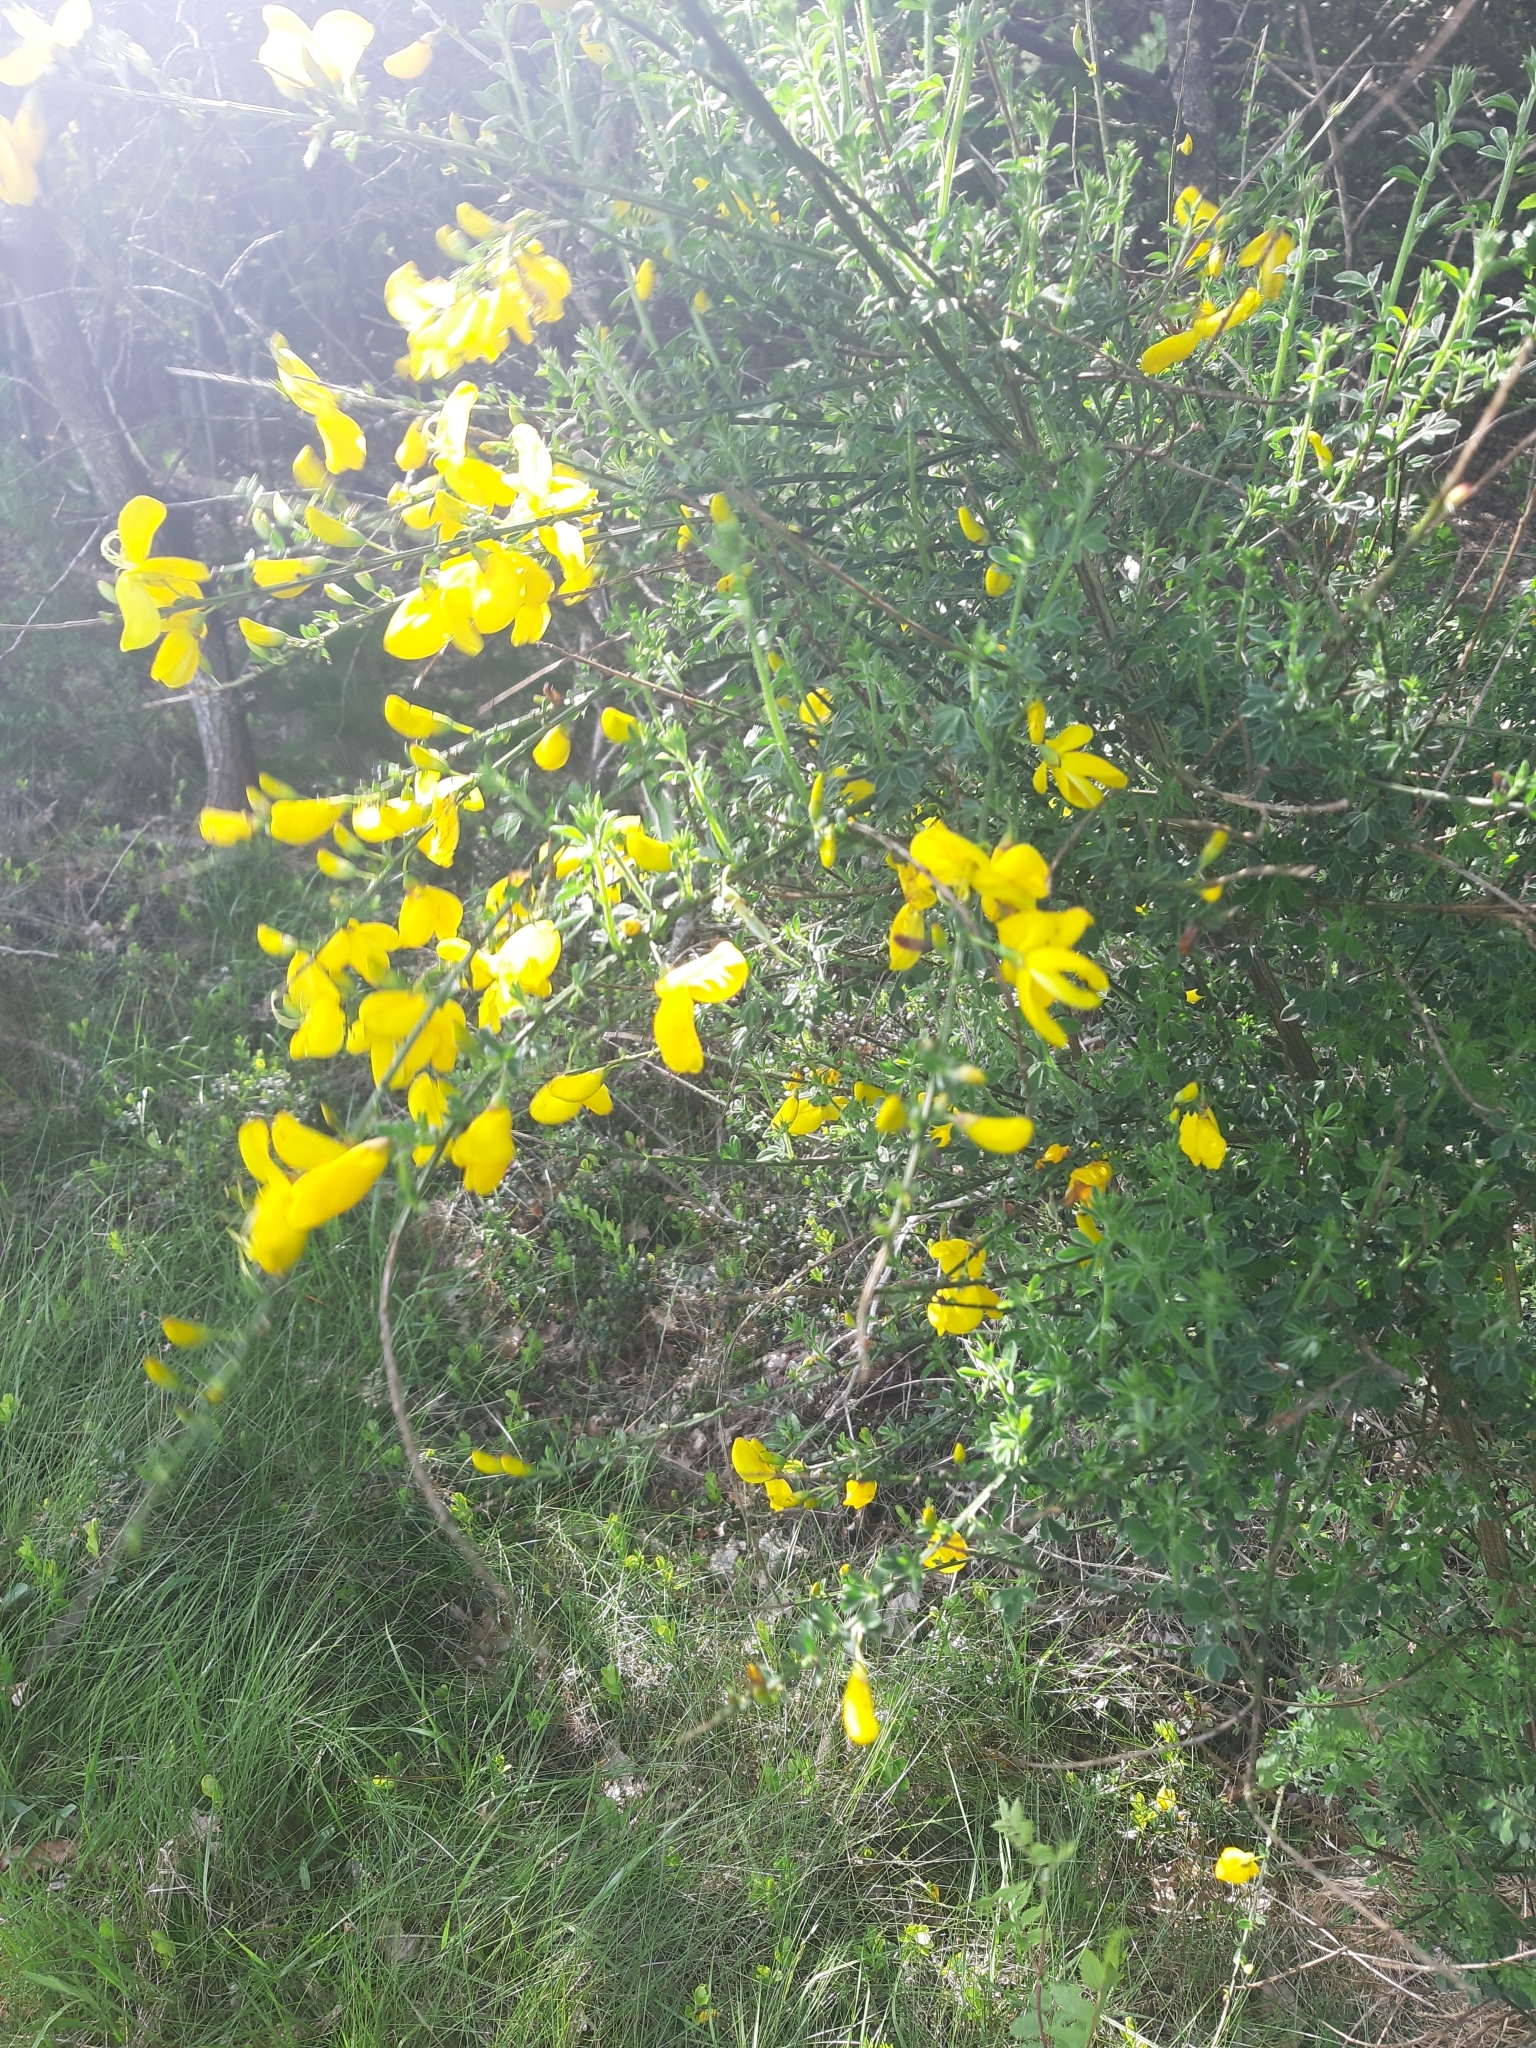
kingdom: Plantae
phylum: Tracheophyta
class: Magnoliopsida
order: Fabales
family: Fabaceae
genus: Cytisus
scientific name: Cytisus scoparius
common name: Scotch broom
